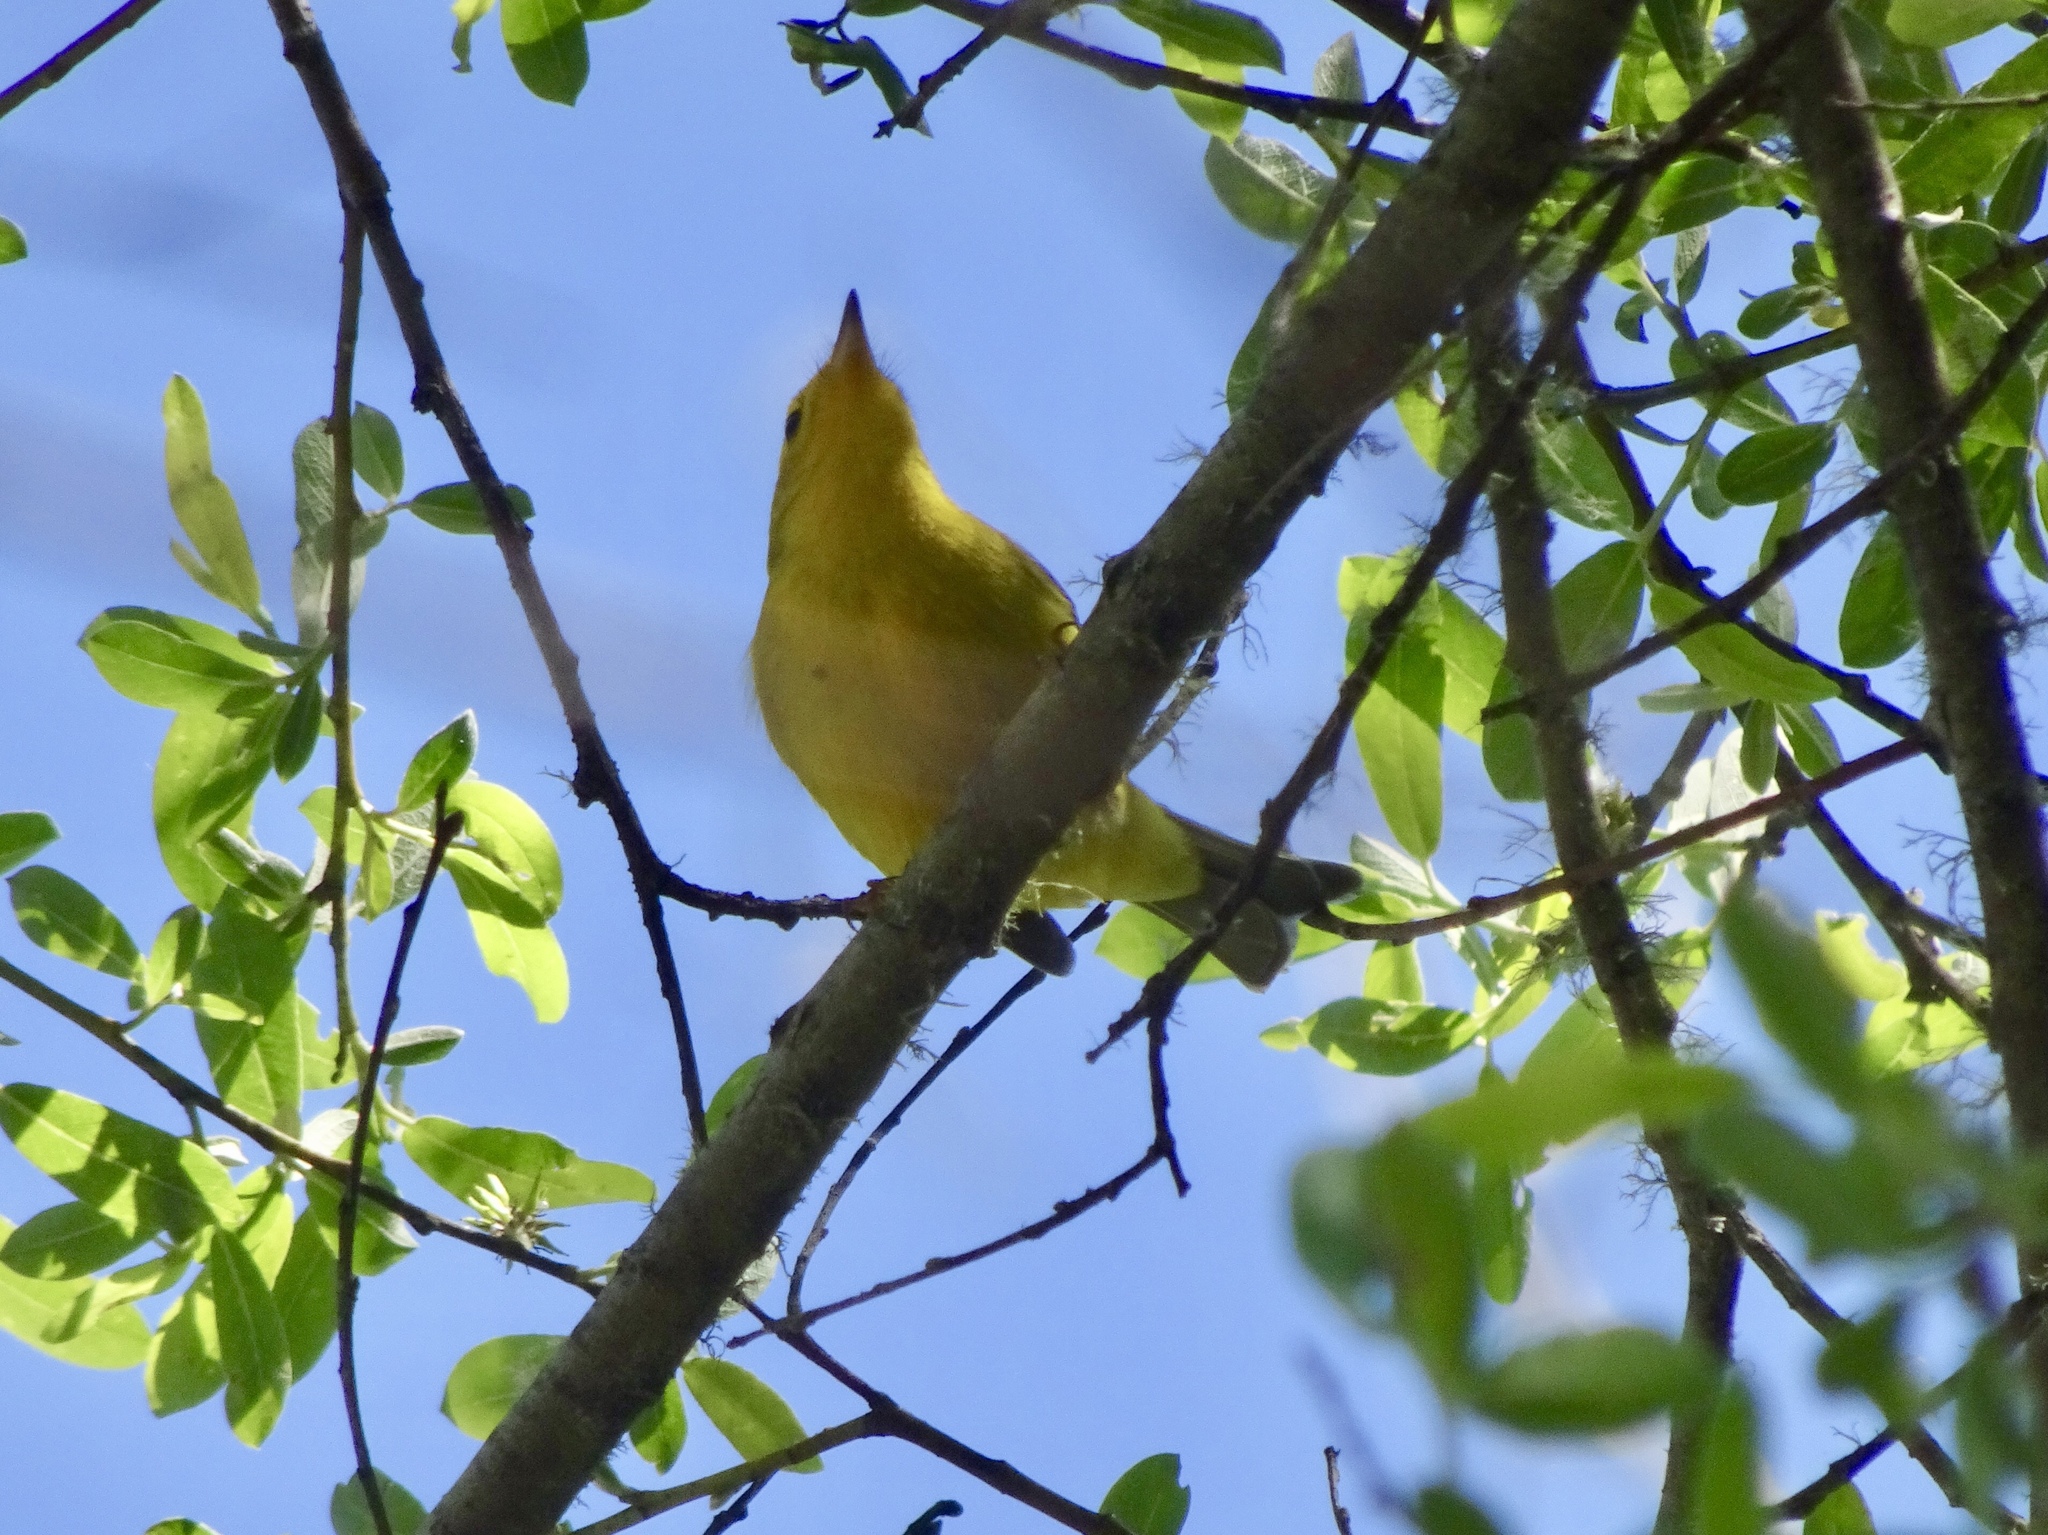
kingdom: Animalia
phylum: Chordata
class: Aves
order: Passeriformes
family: Parulidae
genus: Cardellina
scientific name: Cardellina pusilla
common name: Wilson's warbler
